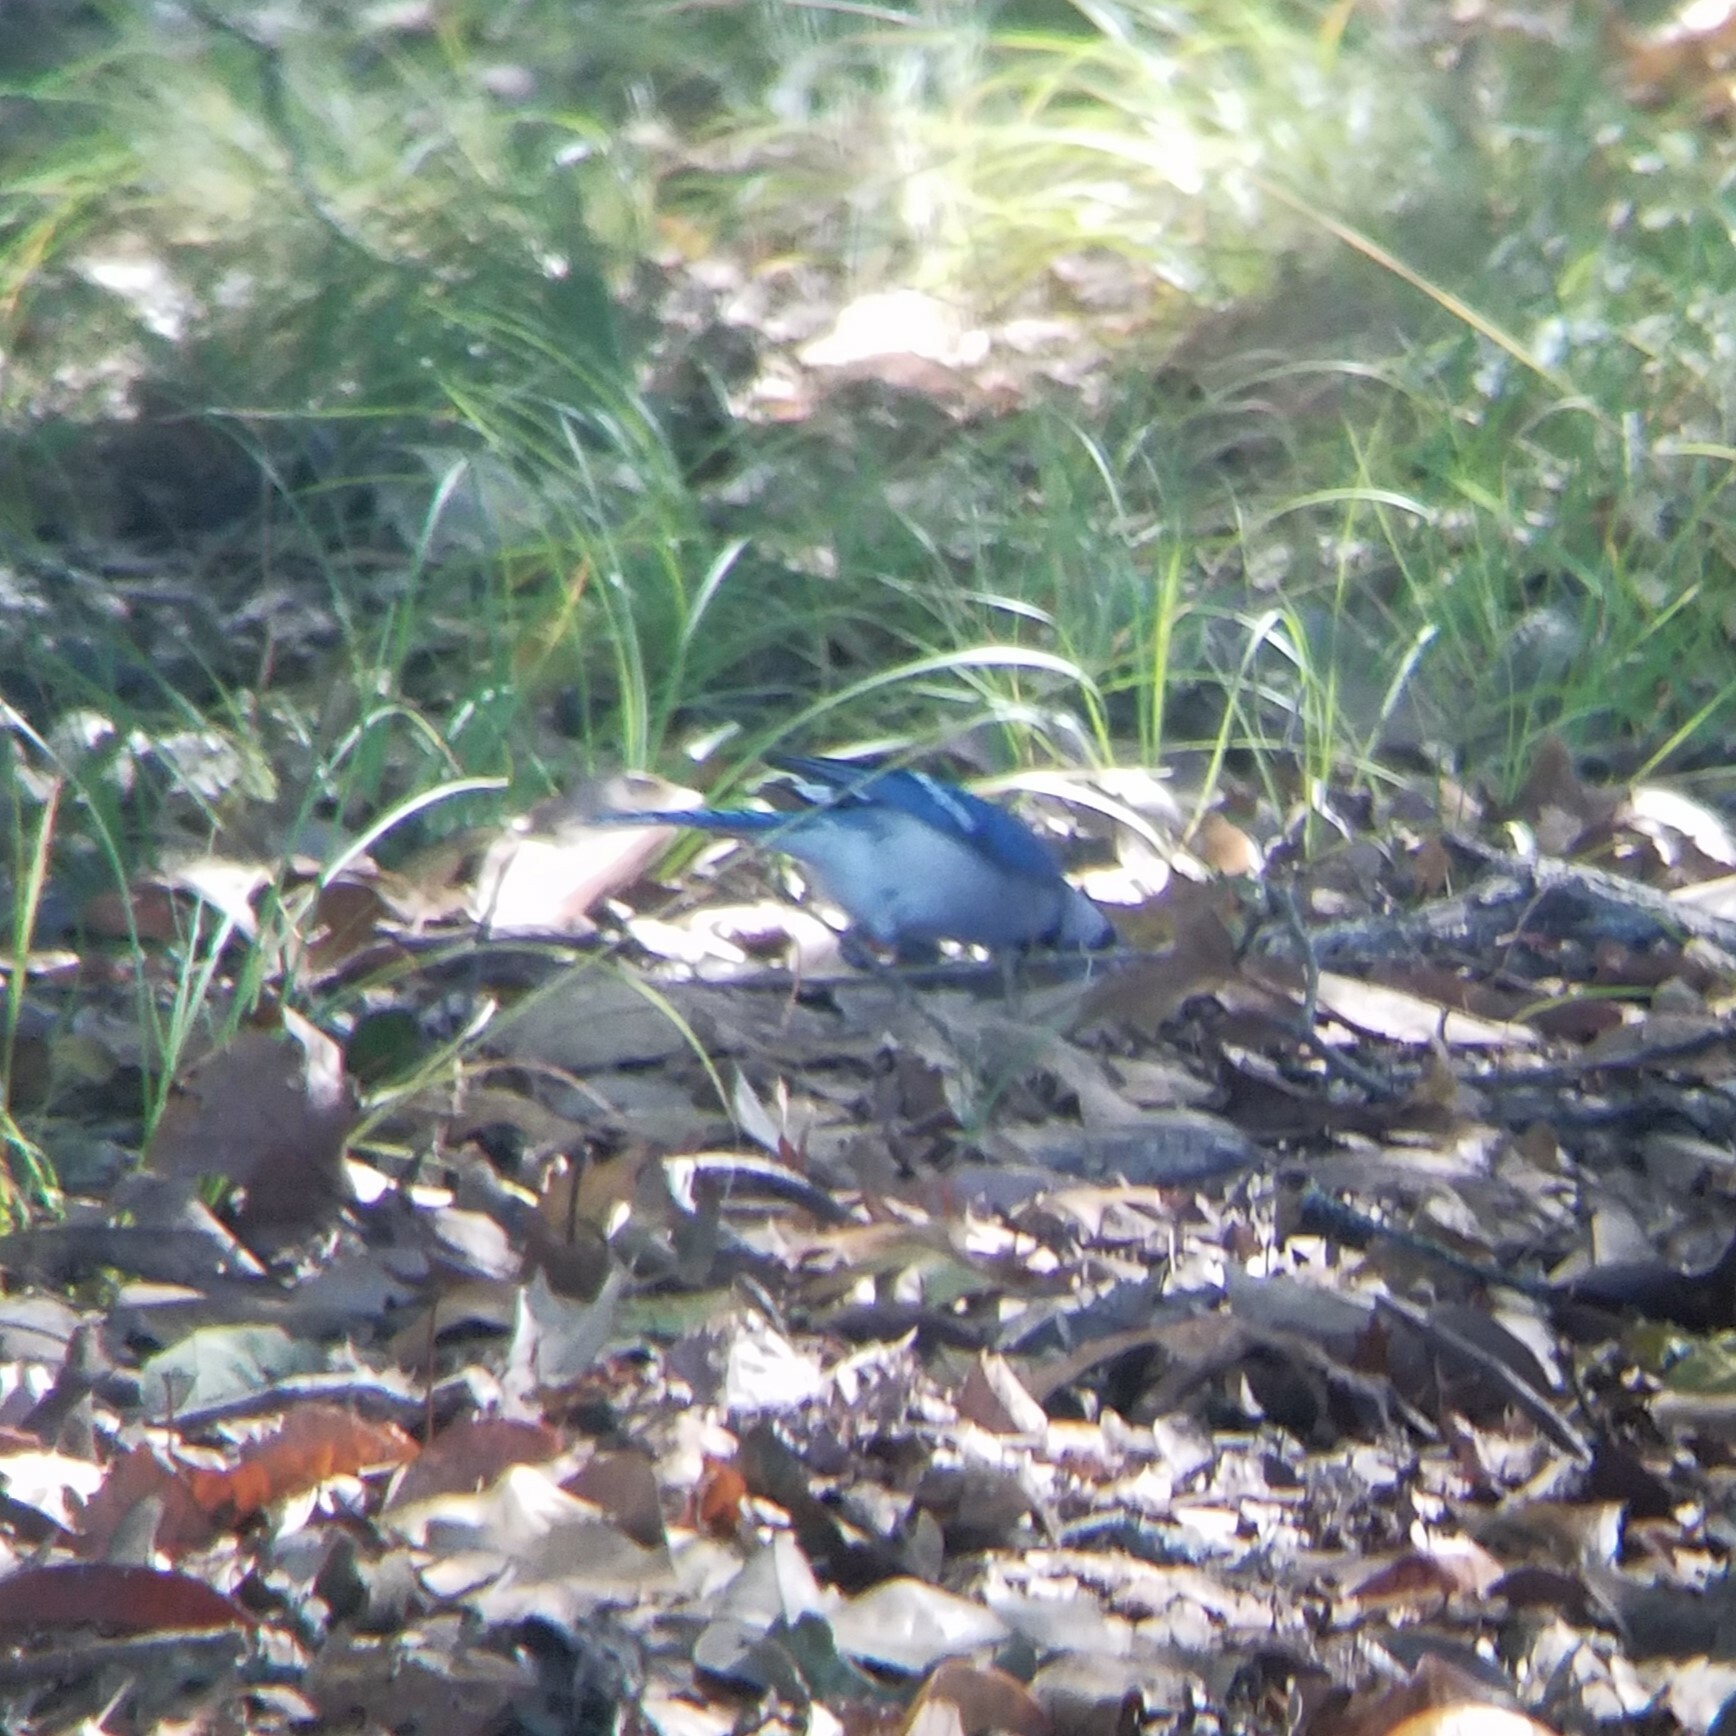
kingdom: Animalia
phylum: Chordata
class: Aves
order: Passeriformes
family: Corvidae
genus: Cyanocitta
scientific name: Cyanocitta cristata
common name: Blue jay
